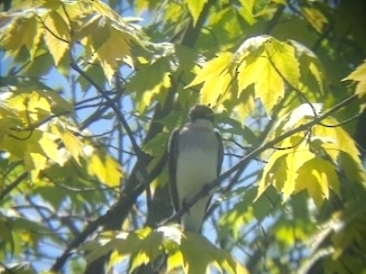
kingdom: Animalia
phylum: Chordata
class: Aves
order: Passeriformes
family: Tyrannidae
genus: Tyrannus
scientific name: Tyrannus tyrannus
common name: Eastern kingbird
